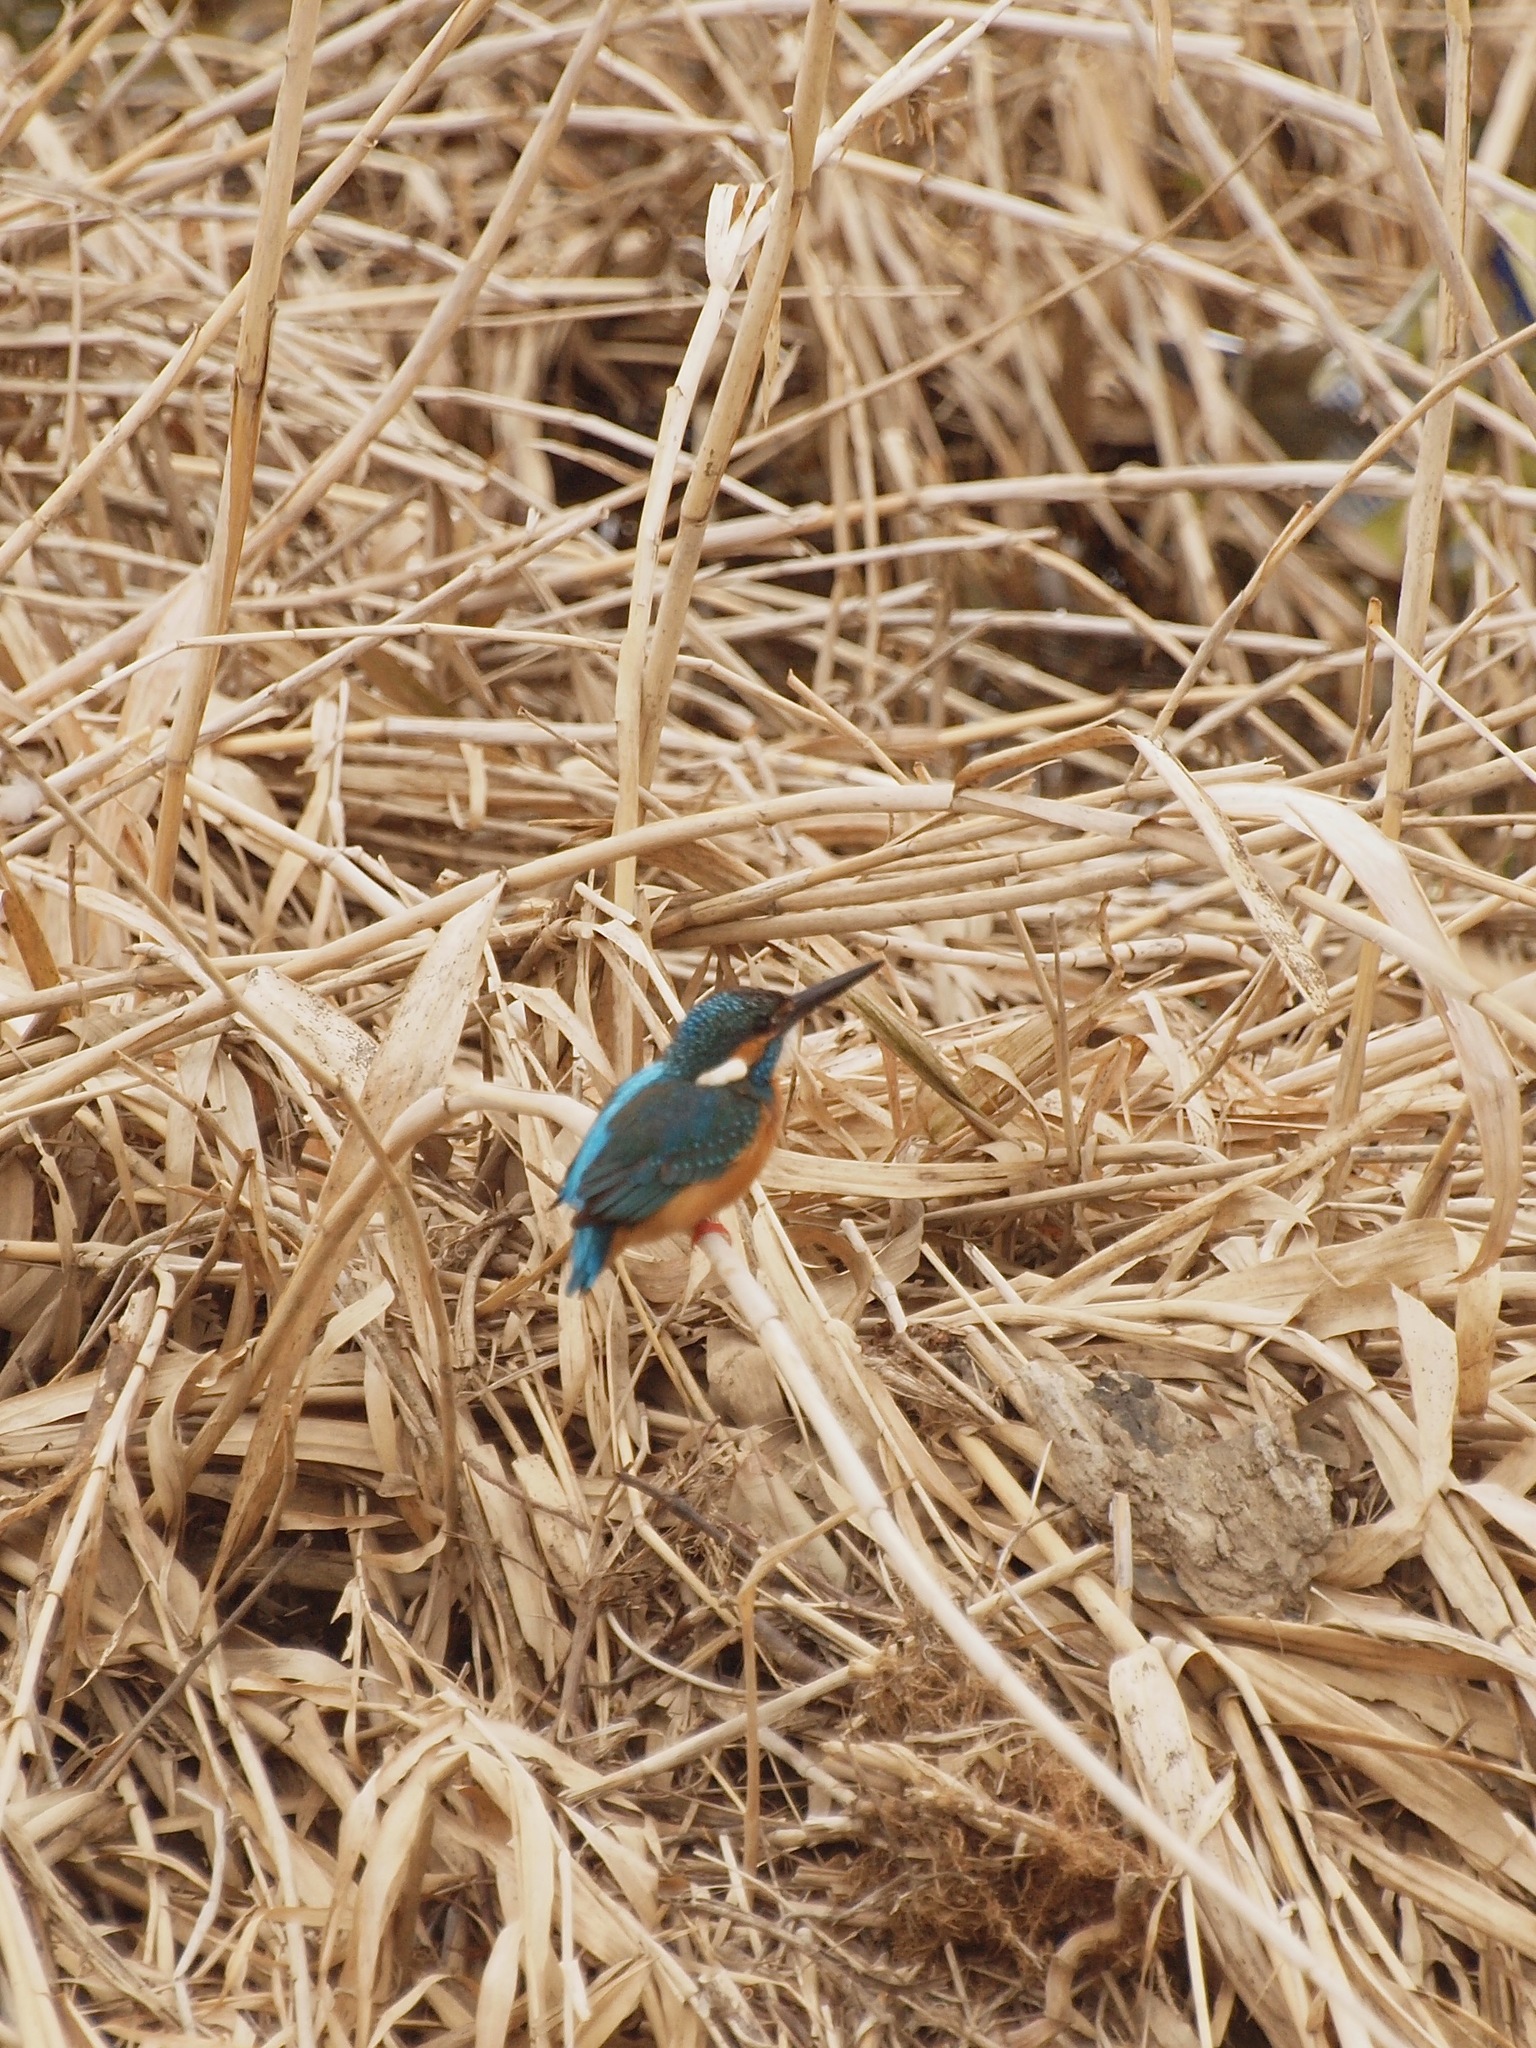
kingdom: Animalia
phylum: Chordata
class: Aves
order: Coraciiformes
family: Alcedinidae
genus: Alcedo
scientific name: Alcedo atthis
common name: Common kingfisher
